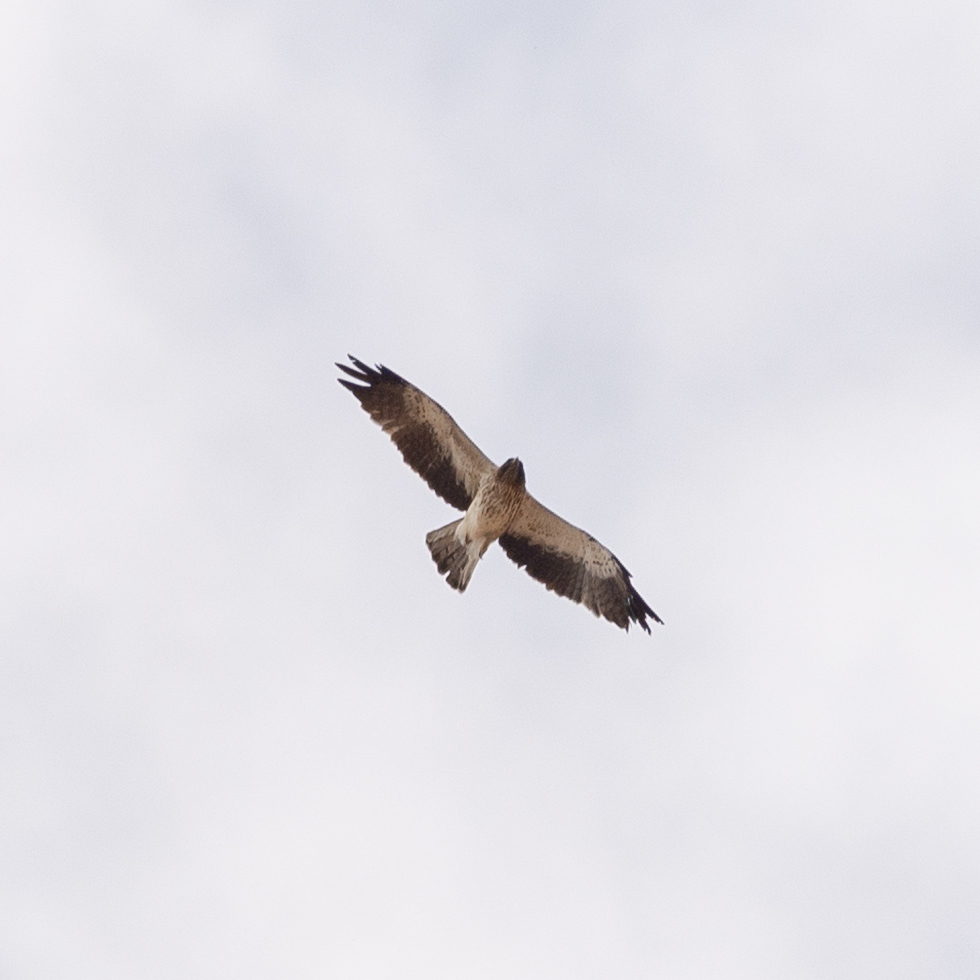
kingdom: Animalia
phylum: Chordata
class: Aves
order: Accipitriformes
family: Accipitridae
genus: Hieraaetus
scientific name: Hieraaetus pennatus
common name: Booted eagle
